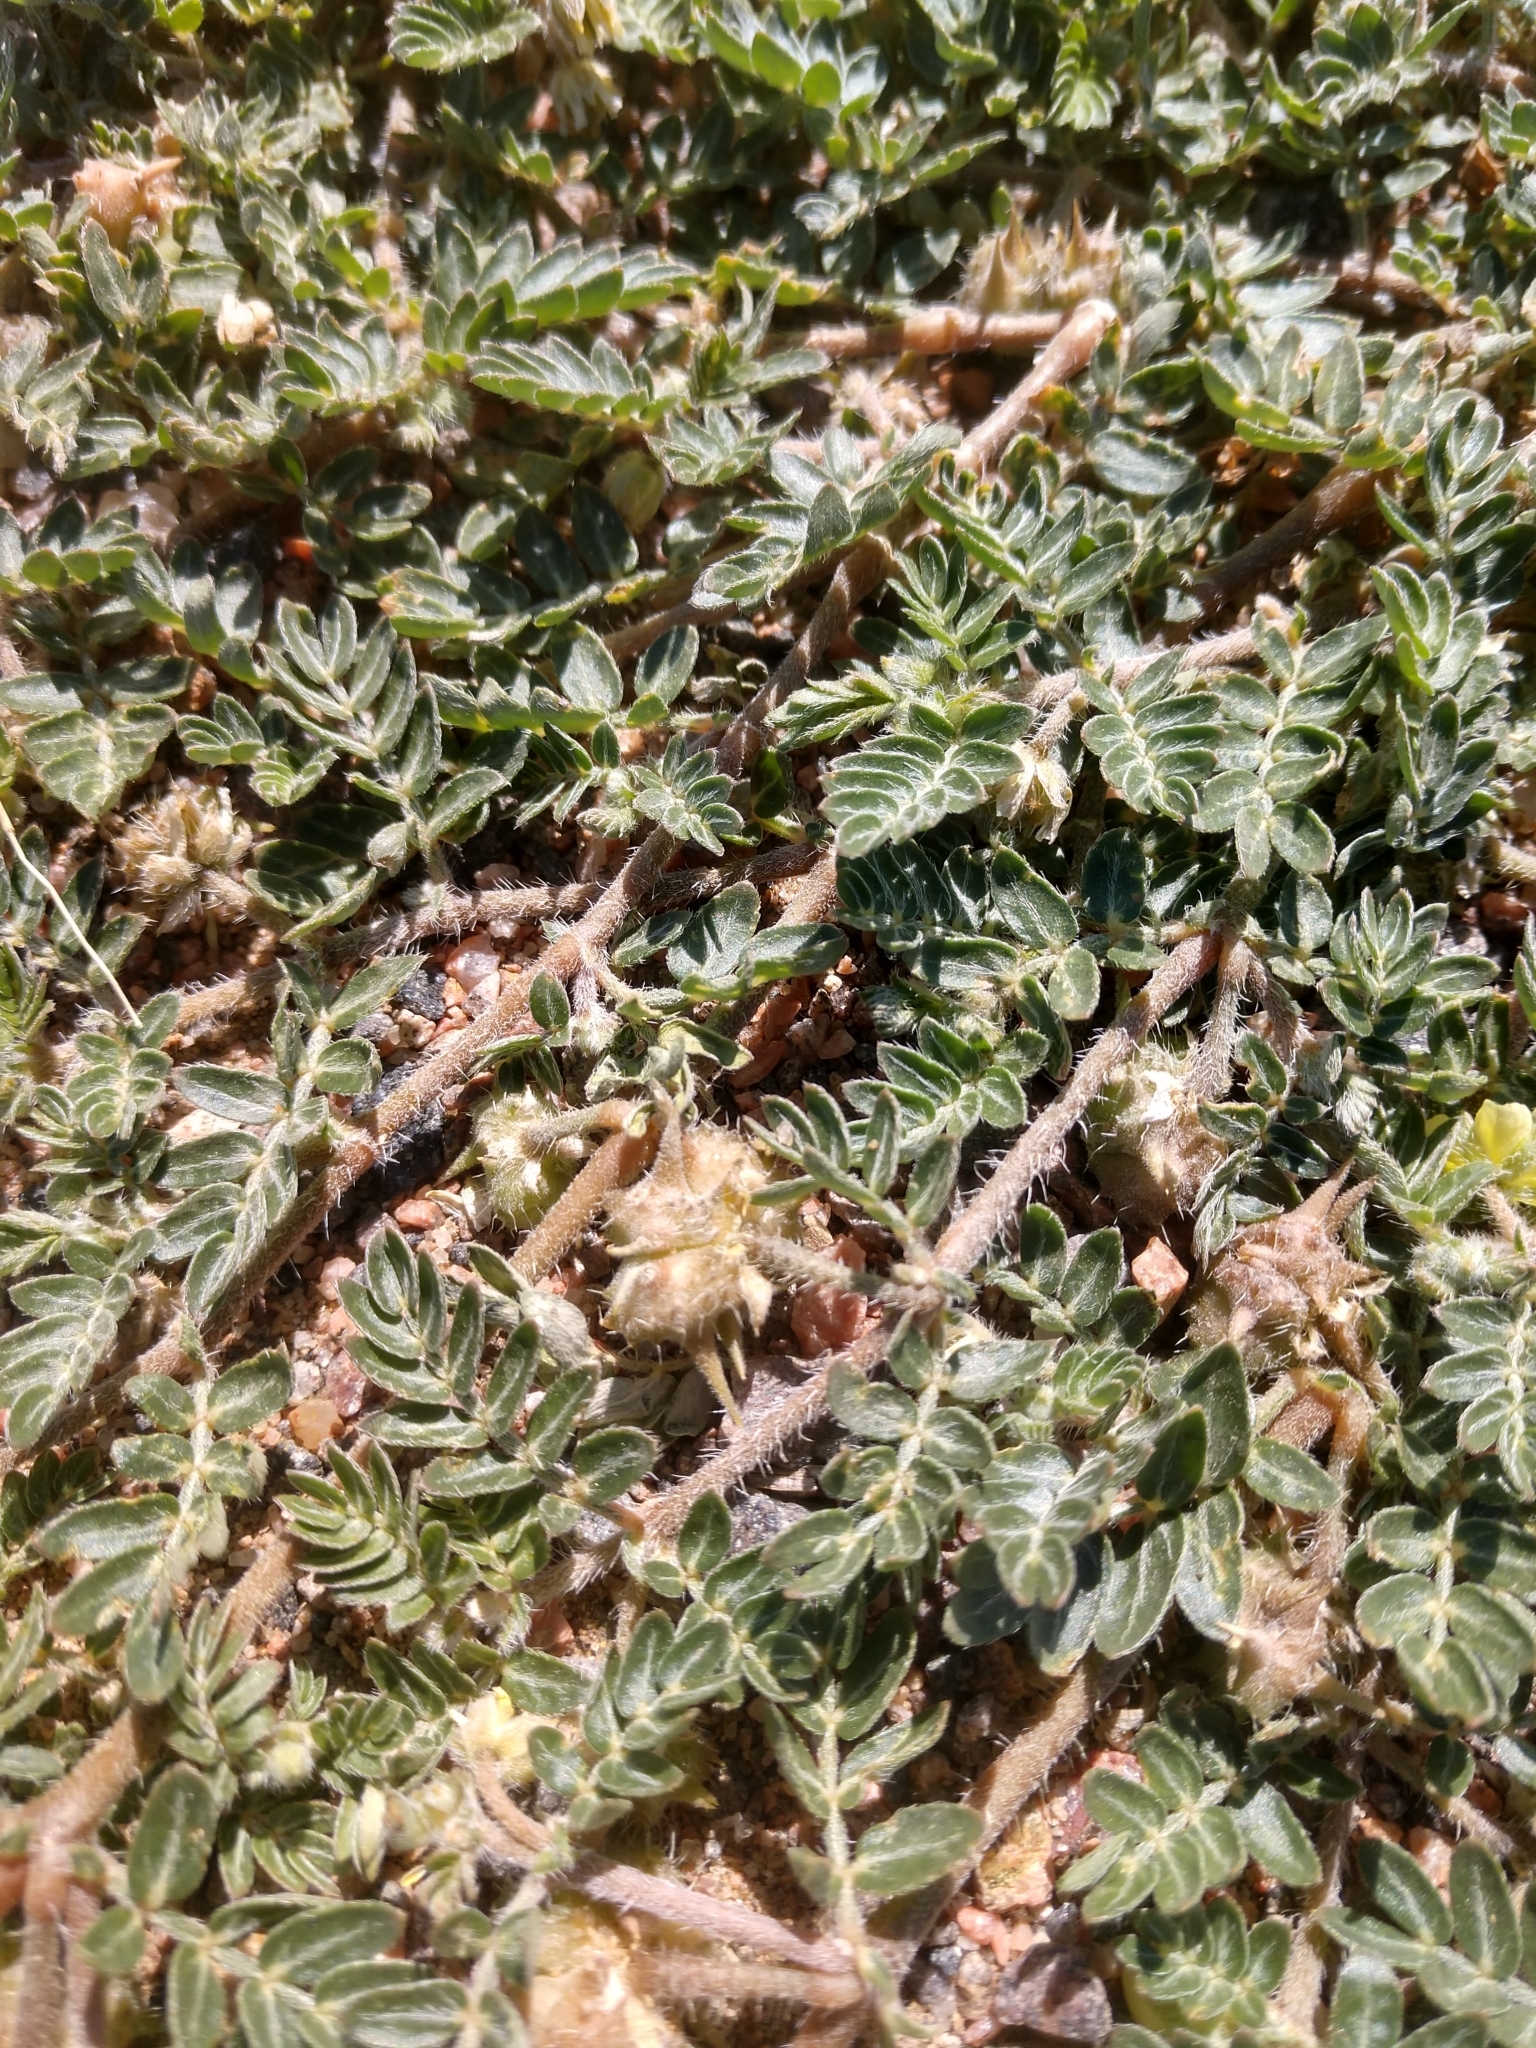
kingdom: Plantae
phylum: Tracheophyta
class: Magnoliopsida
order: Zygophyllales
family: Zygophyllaceae
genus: Tribulus
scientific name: Tribulus terrestris
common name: Puncturevine
